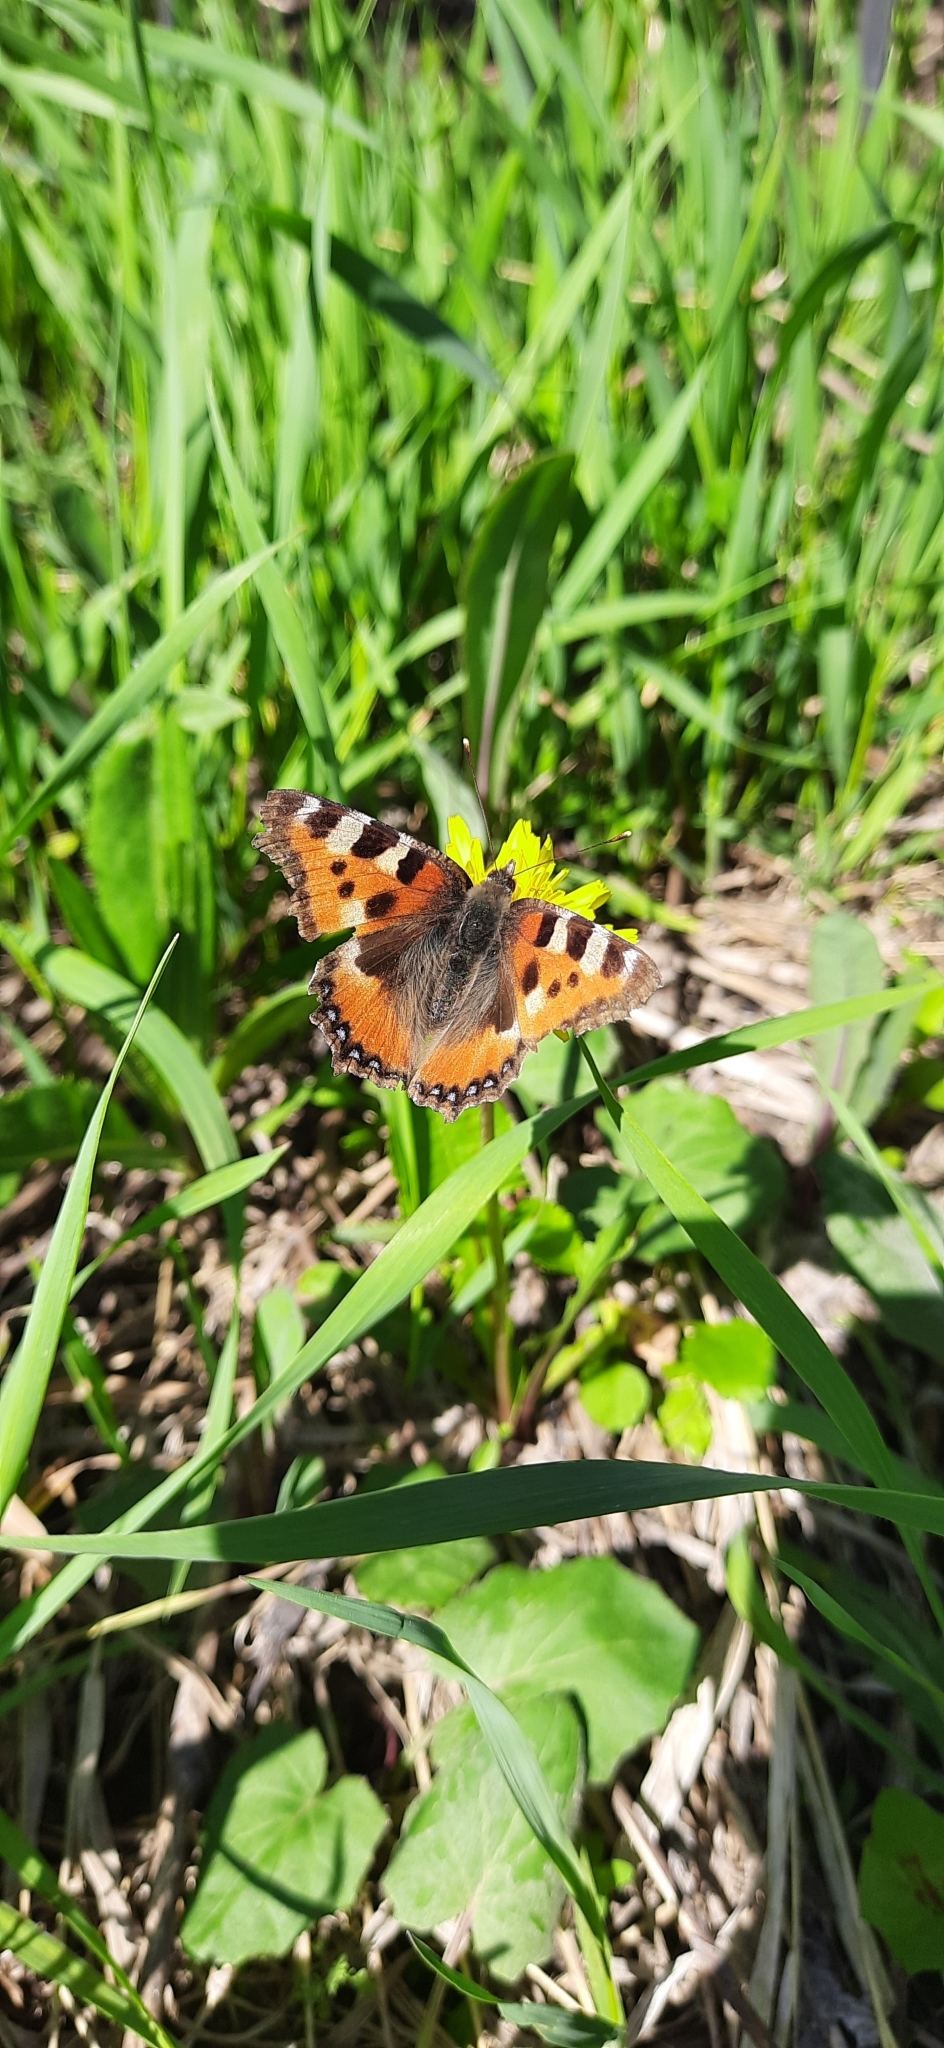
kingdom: Animalia
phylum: Arthropoda
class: Insecta
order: Lepidoptera
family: Nymphalidae
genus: Aglais
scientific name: Aglais urticae
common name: Small tortoiseshell
